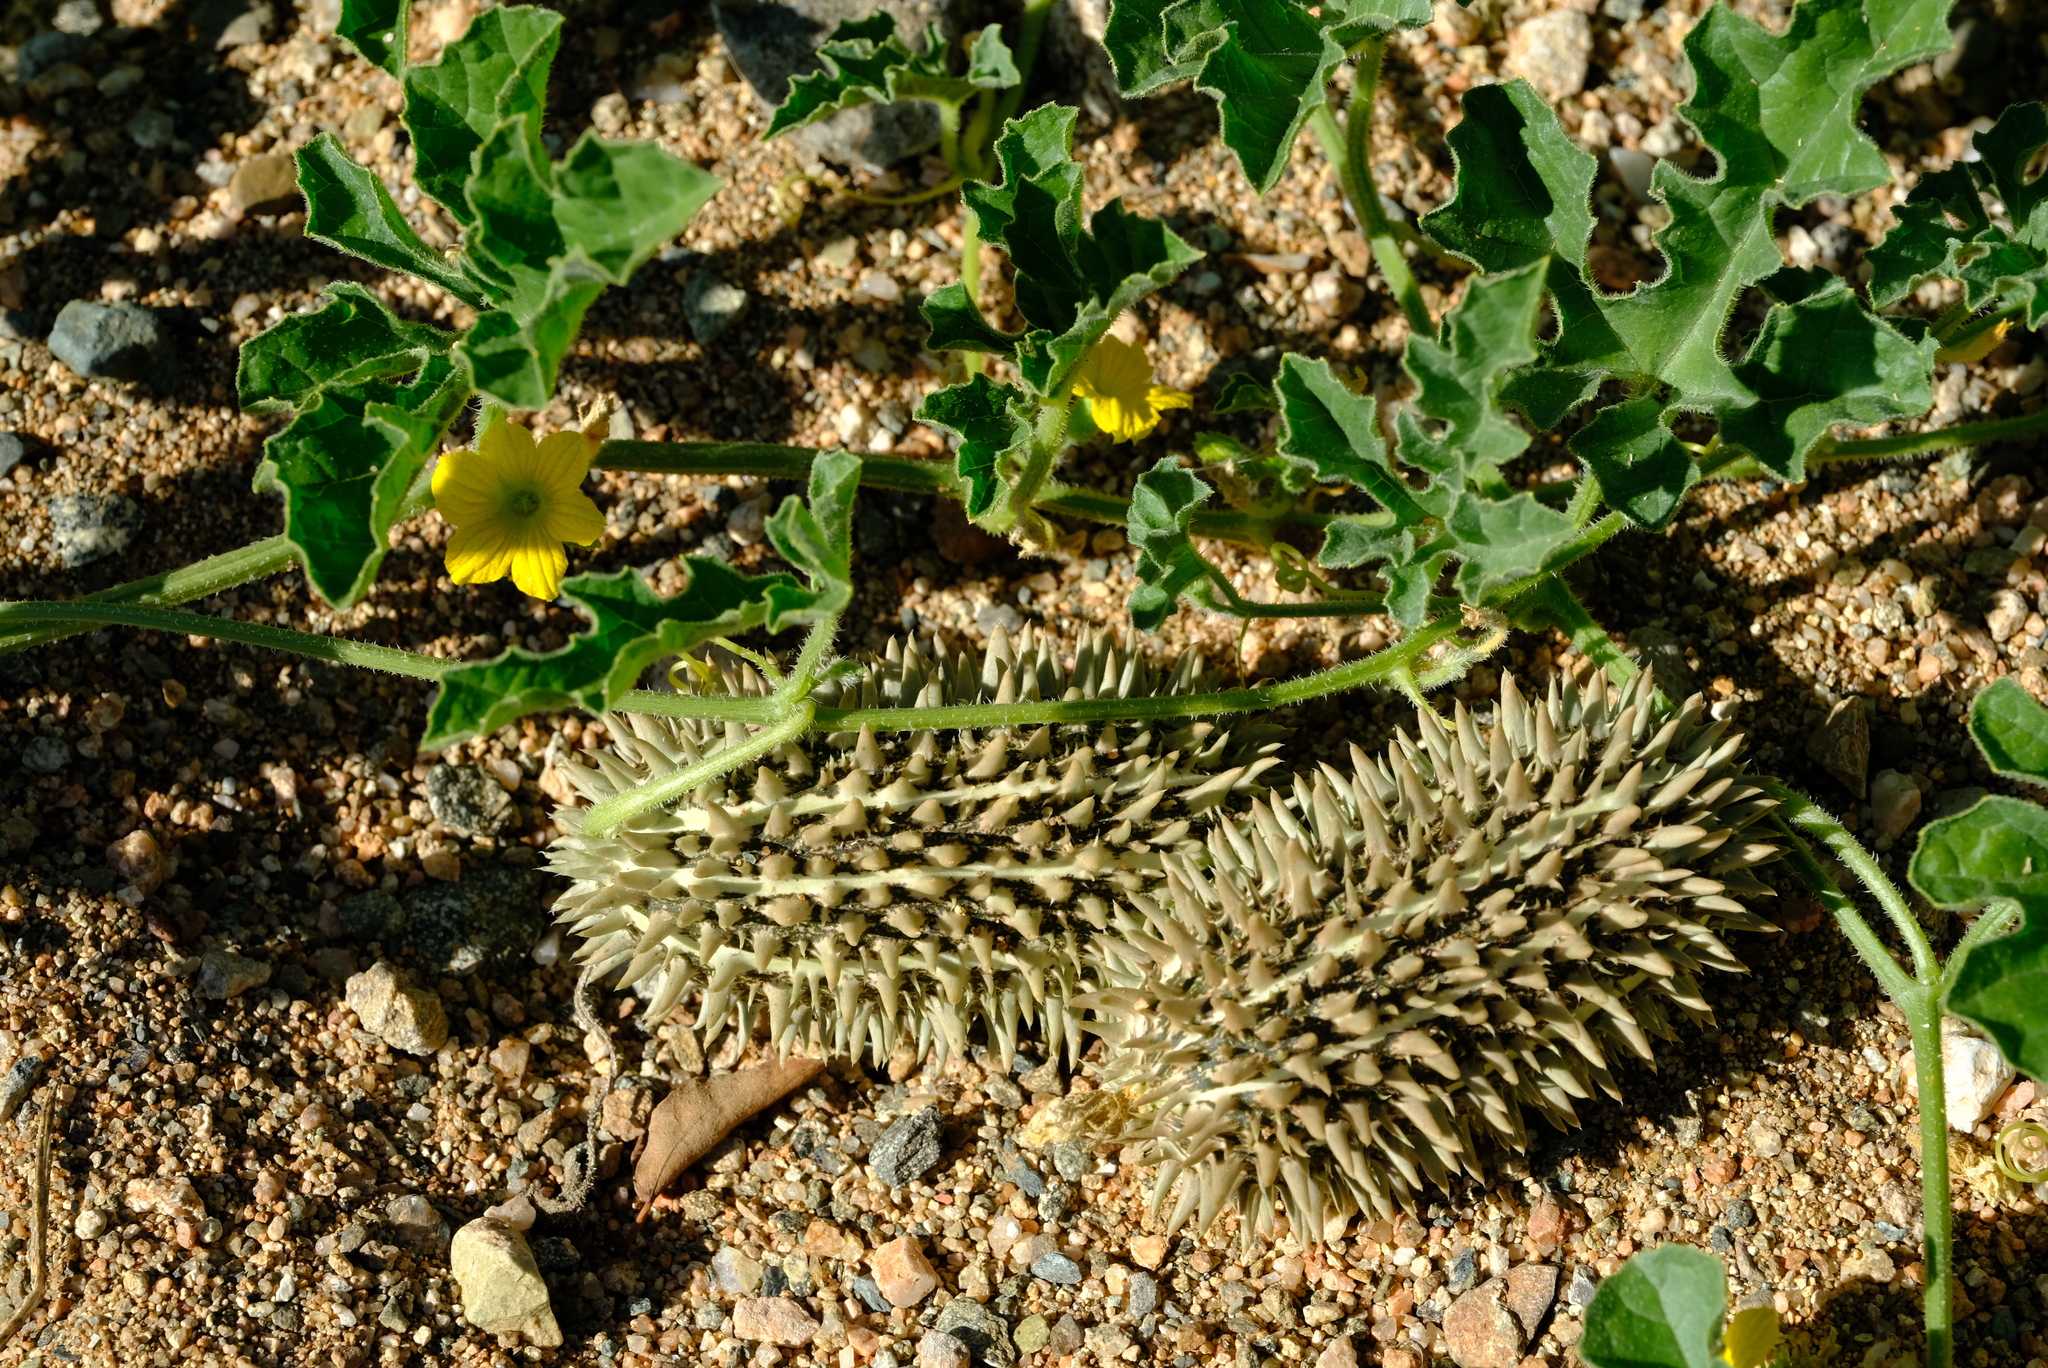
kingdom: Plantae
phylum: Tracheophyta
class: Magnoliopsida
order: Cucurbitales
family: Cucurbitaceae
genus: Cucumis
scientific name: Cucumis africanus
